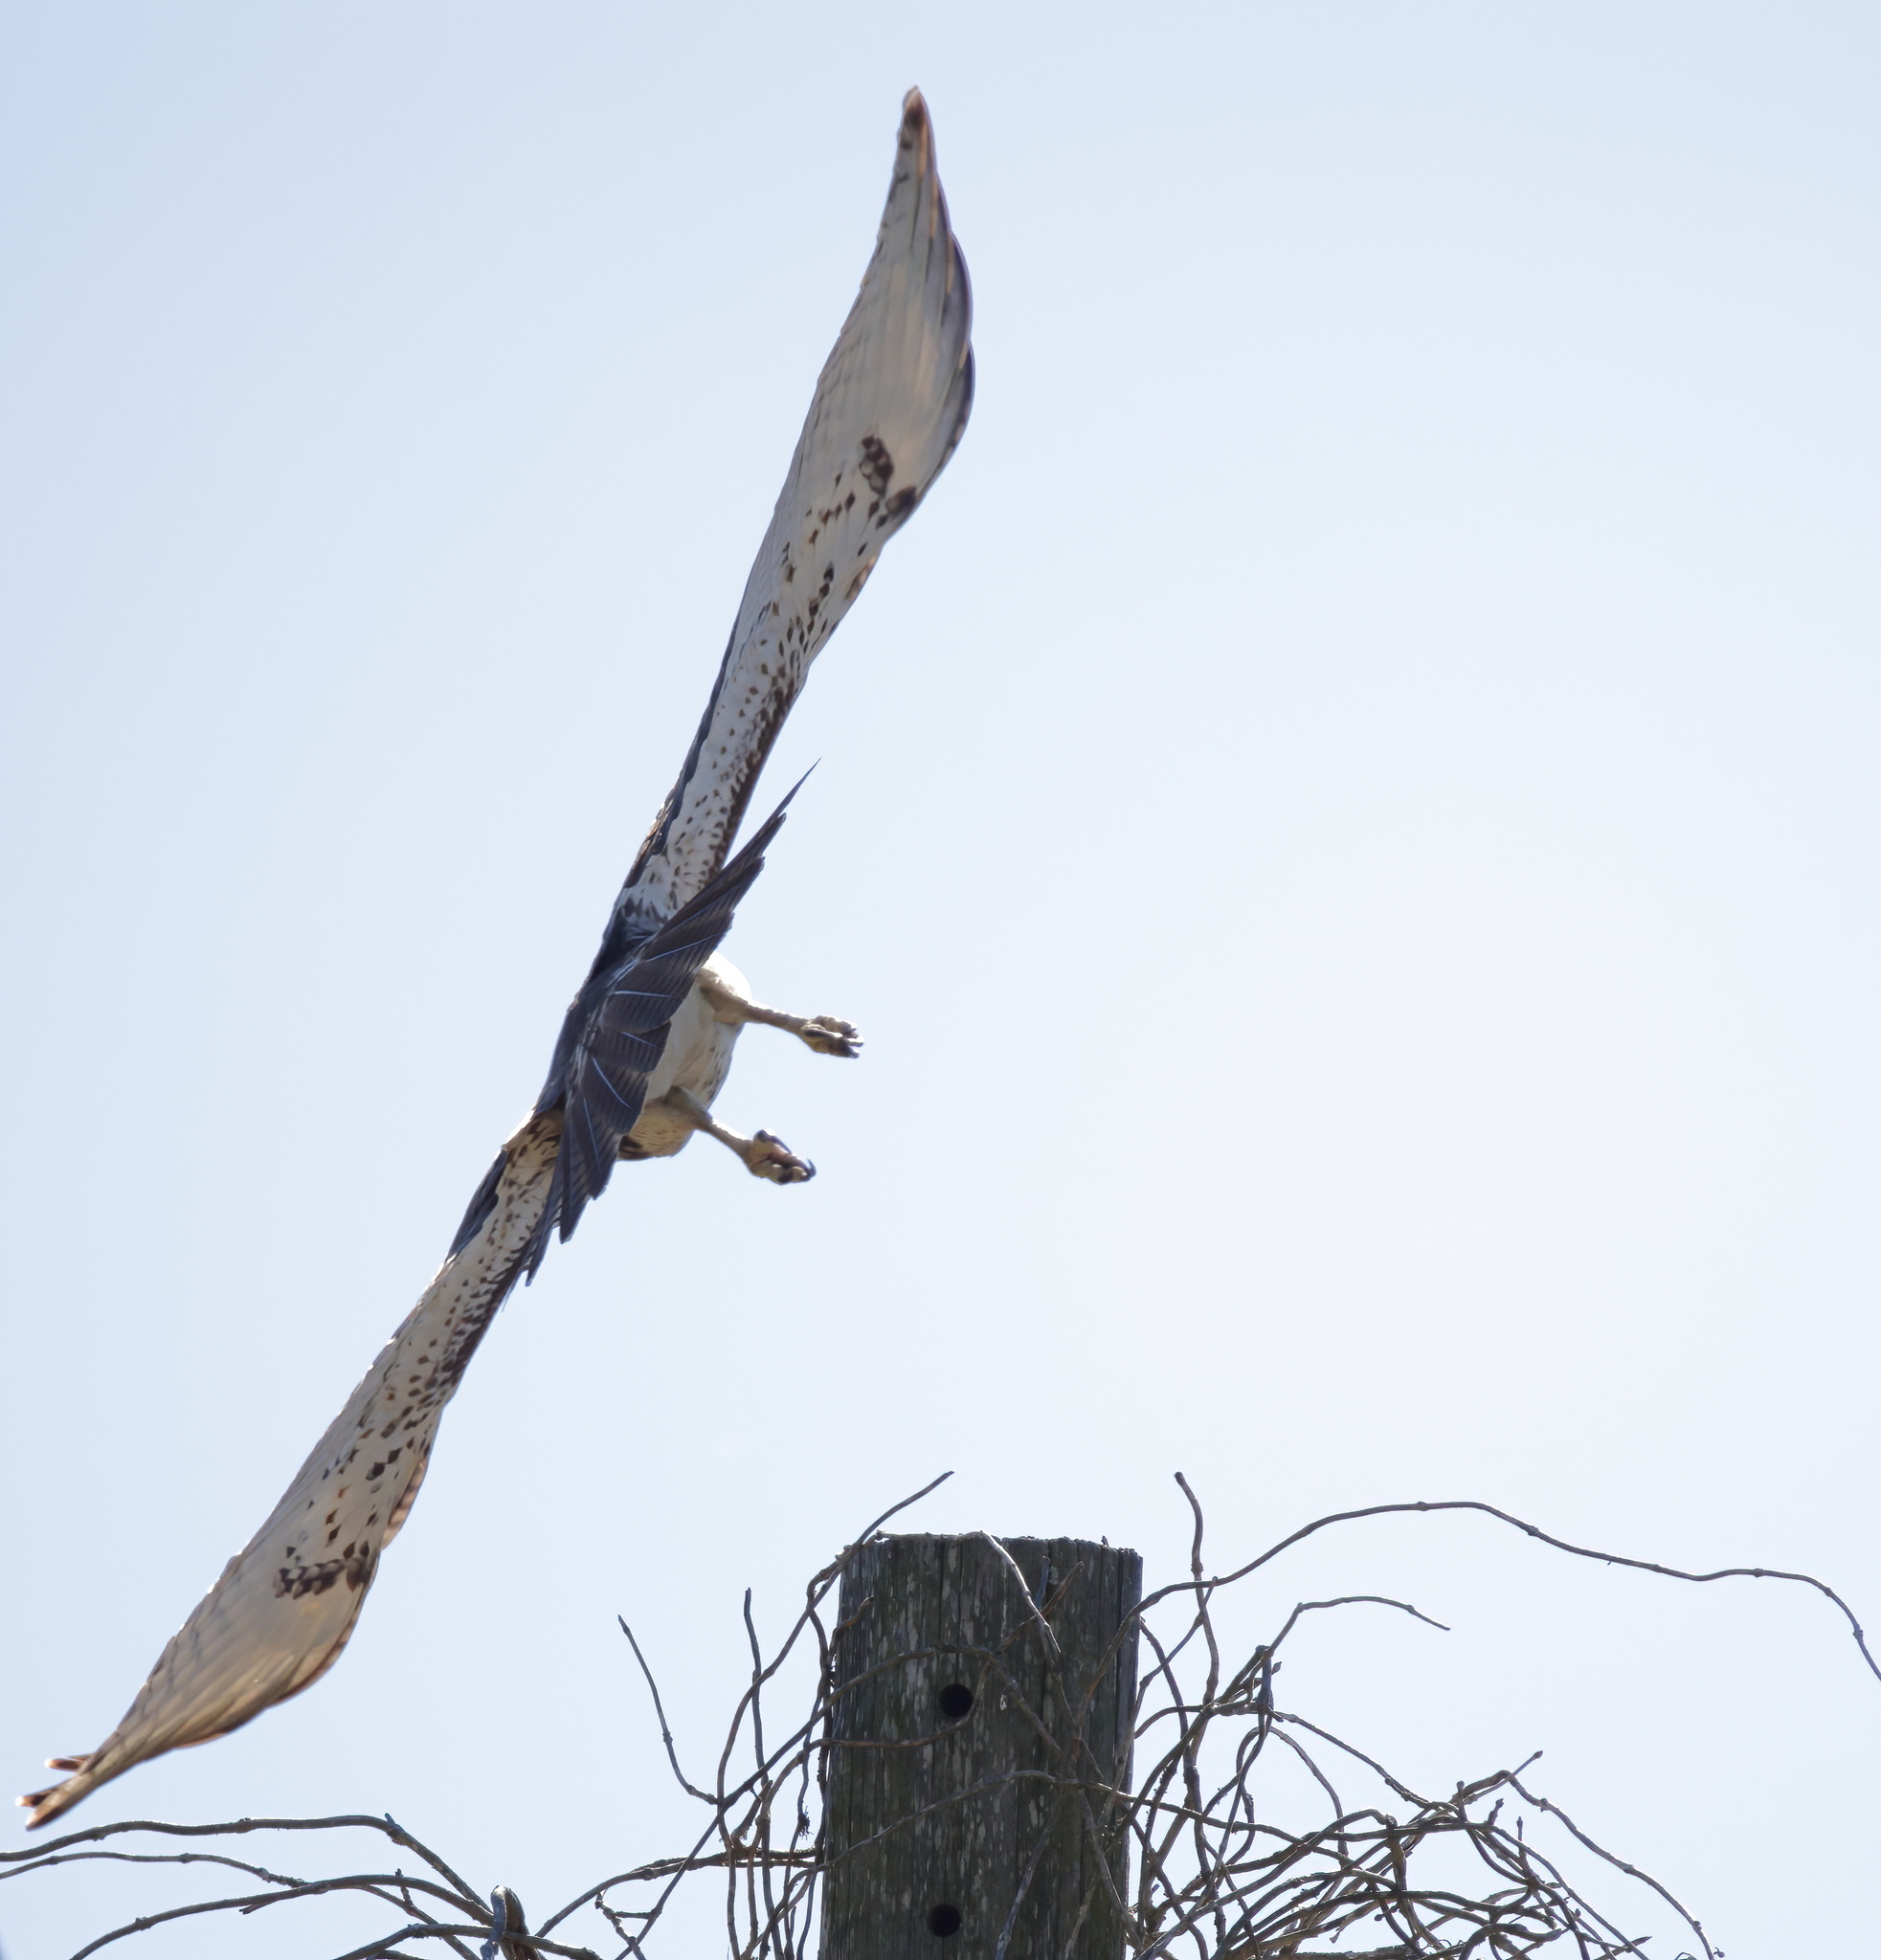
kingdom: Animalia
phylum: Chordata
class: Aves
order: Accipitriformes
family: Accipitridae
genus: Buteo
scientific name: Buteo jamaicensis
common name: Red-tailed hawk
